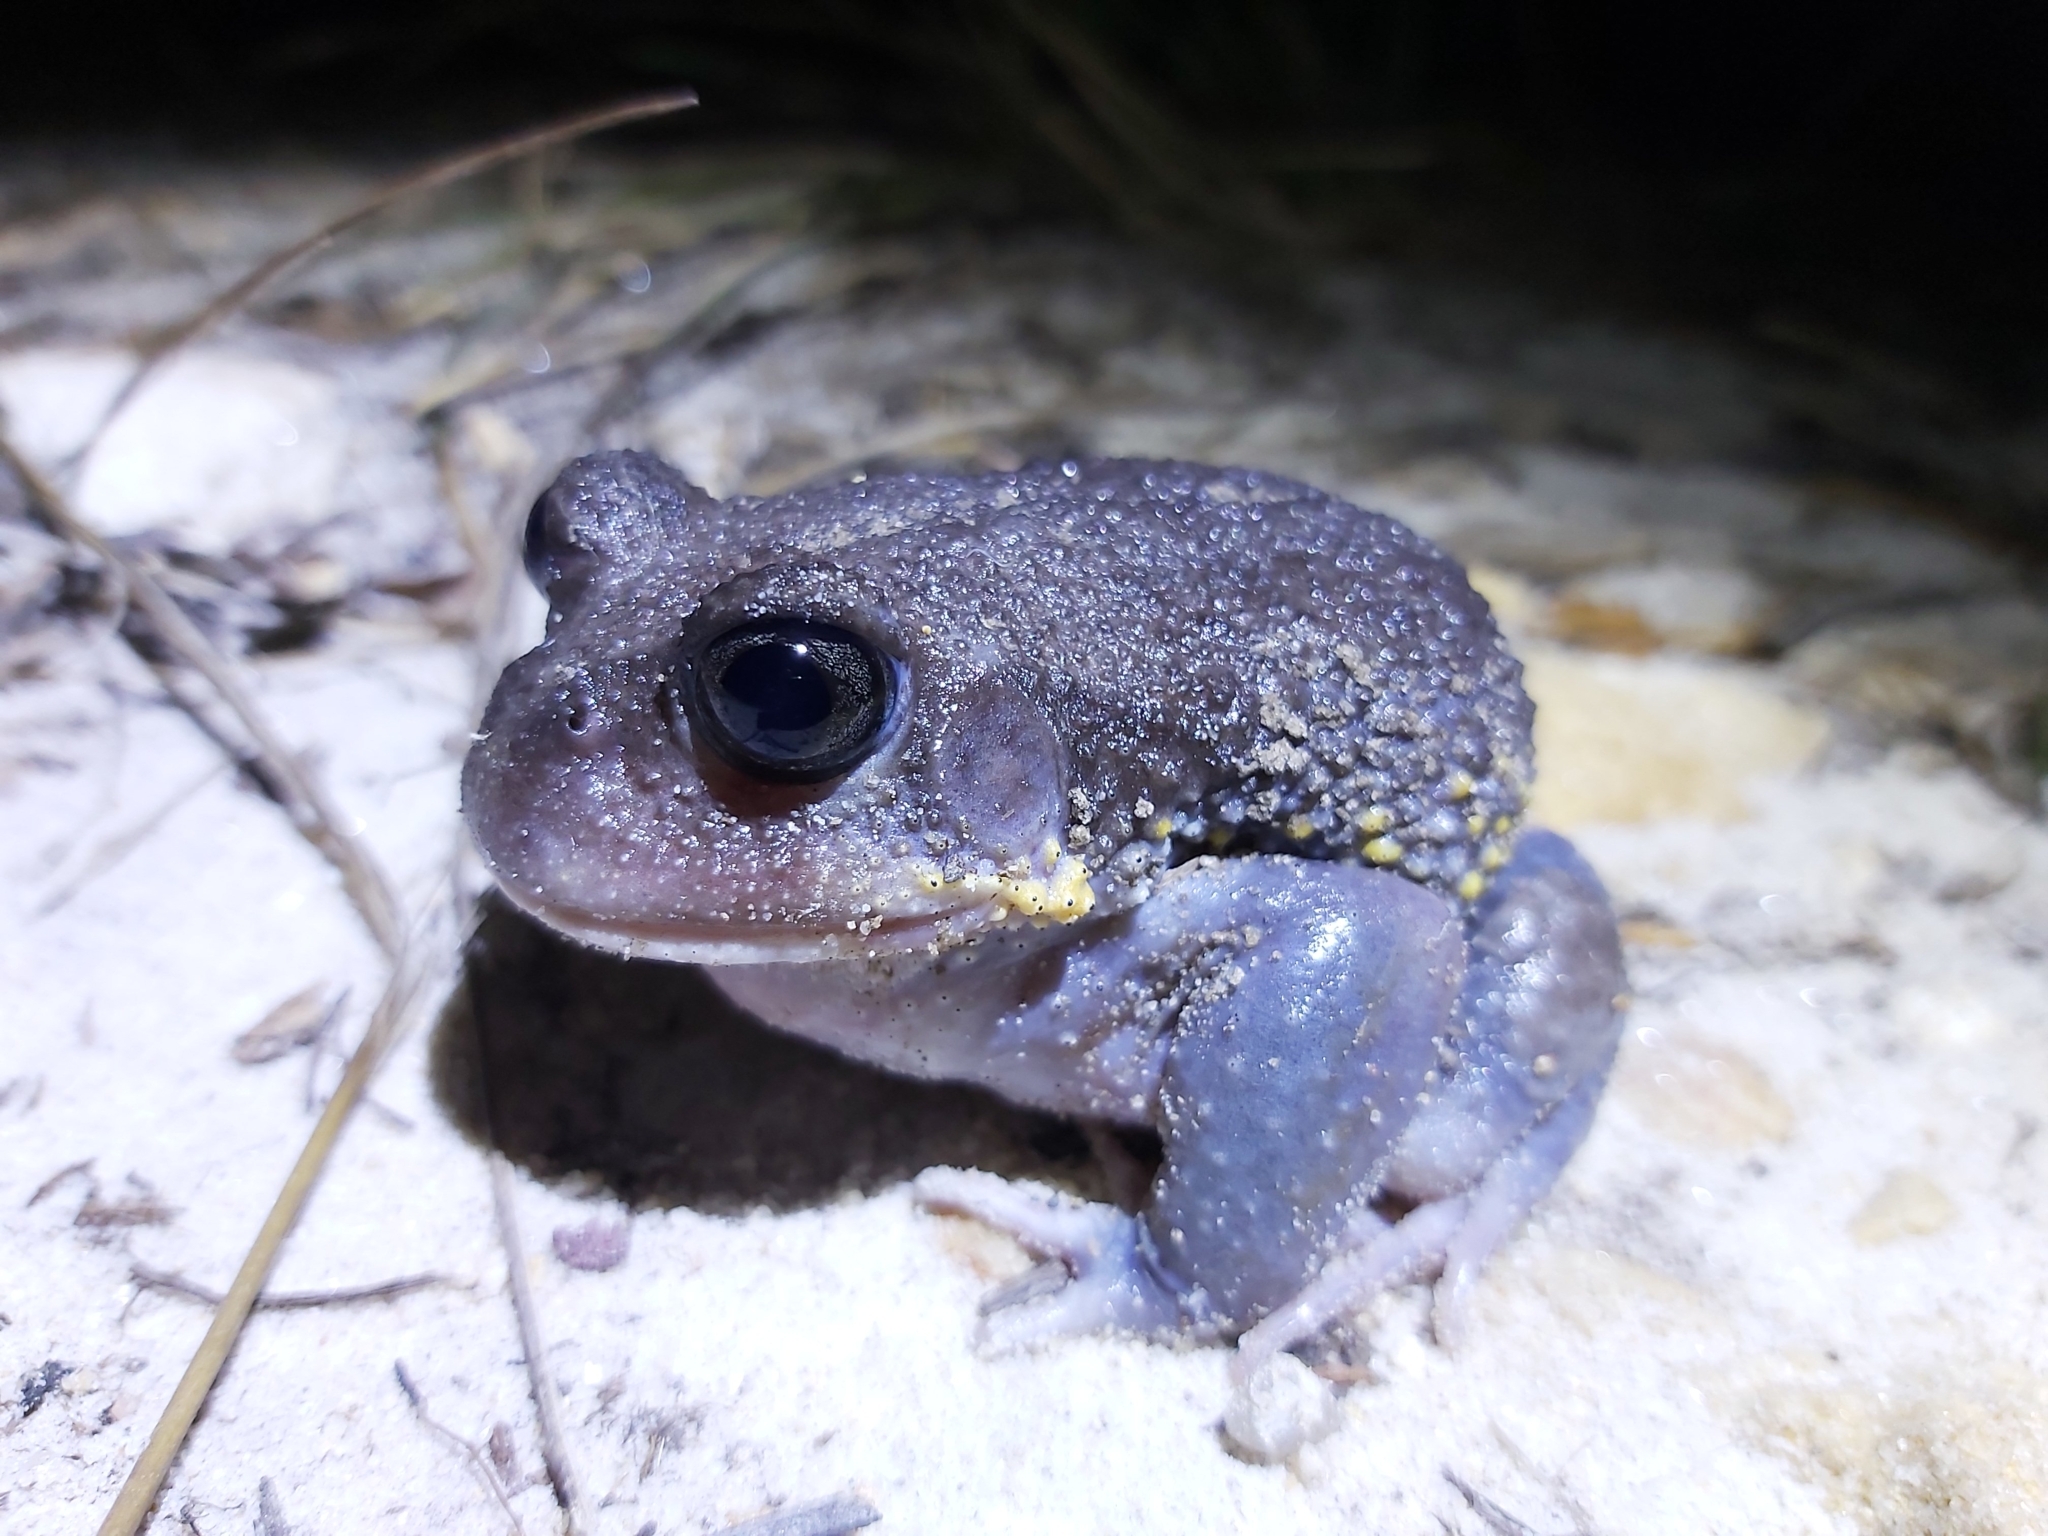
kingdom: Animalia
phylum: Chordata
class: Amphibia
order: Anura
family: Limnodynastidae
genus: Heleioporus
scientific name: Heleioporus australiacus
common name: Eastern owl frog
